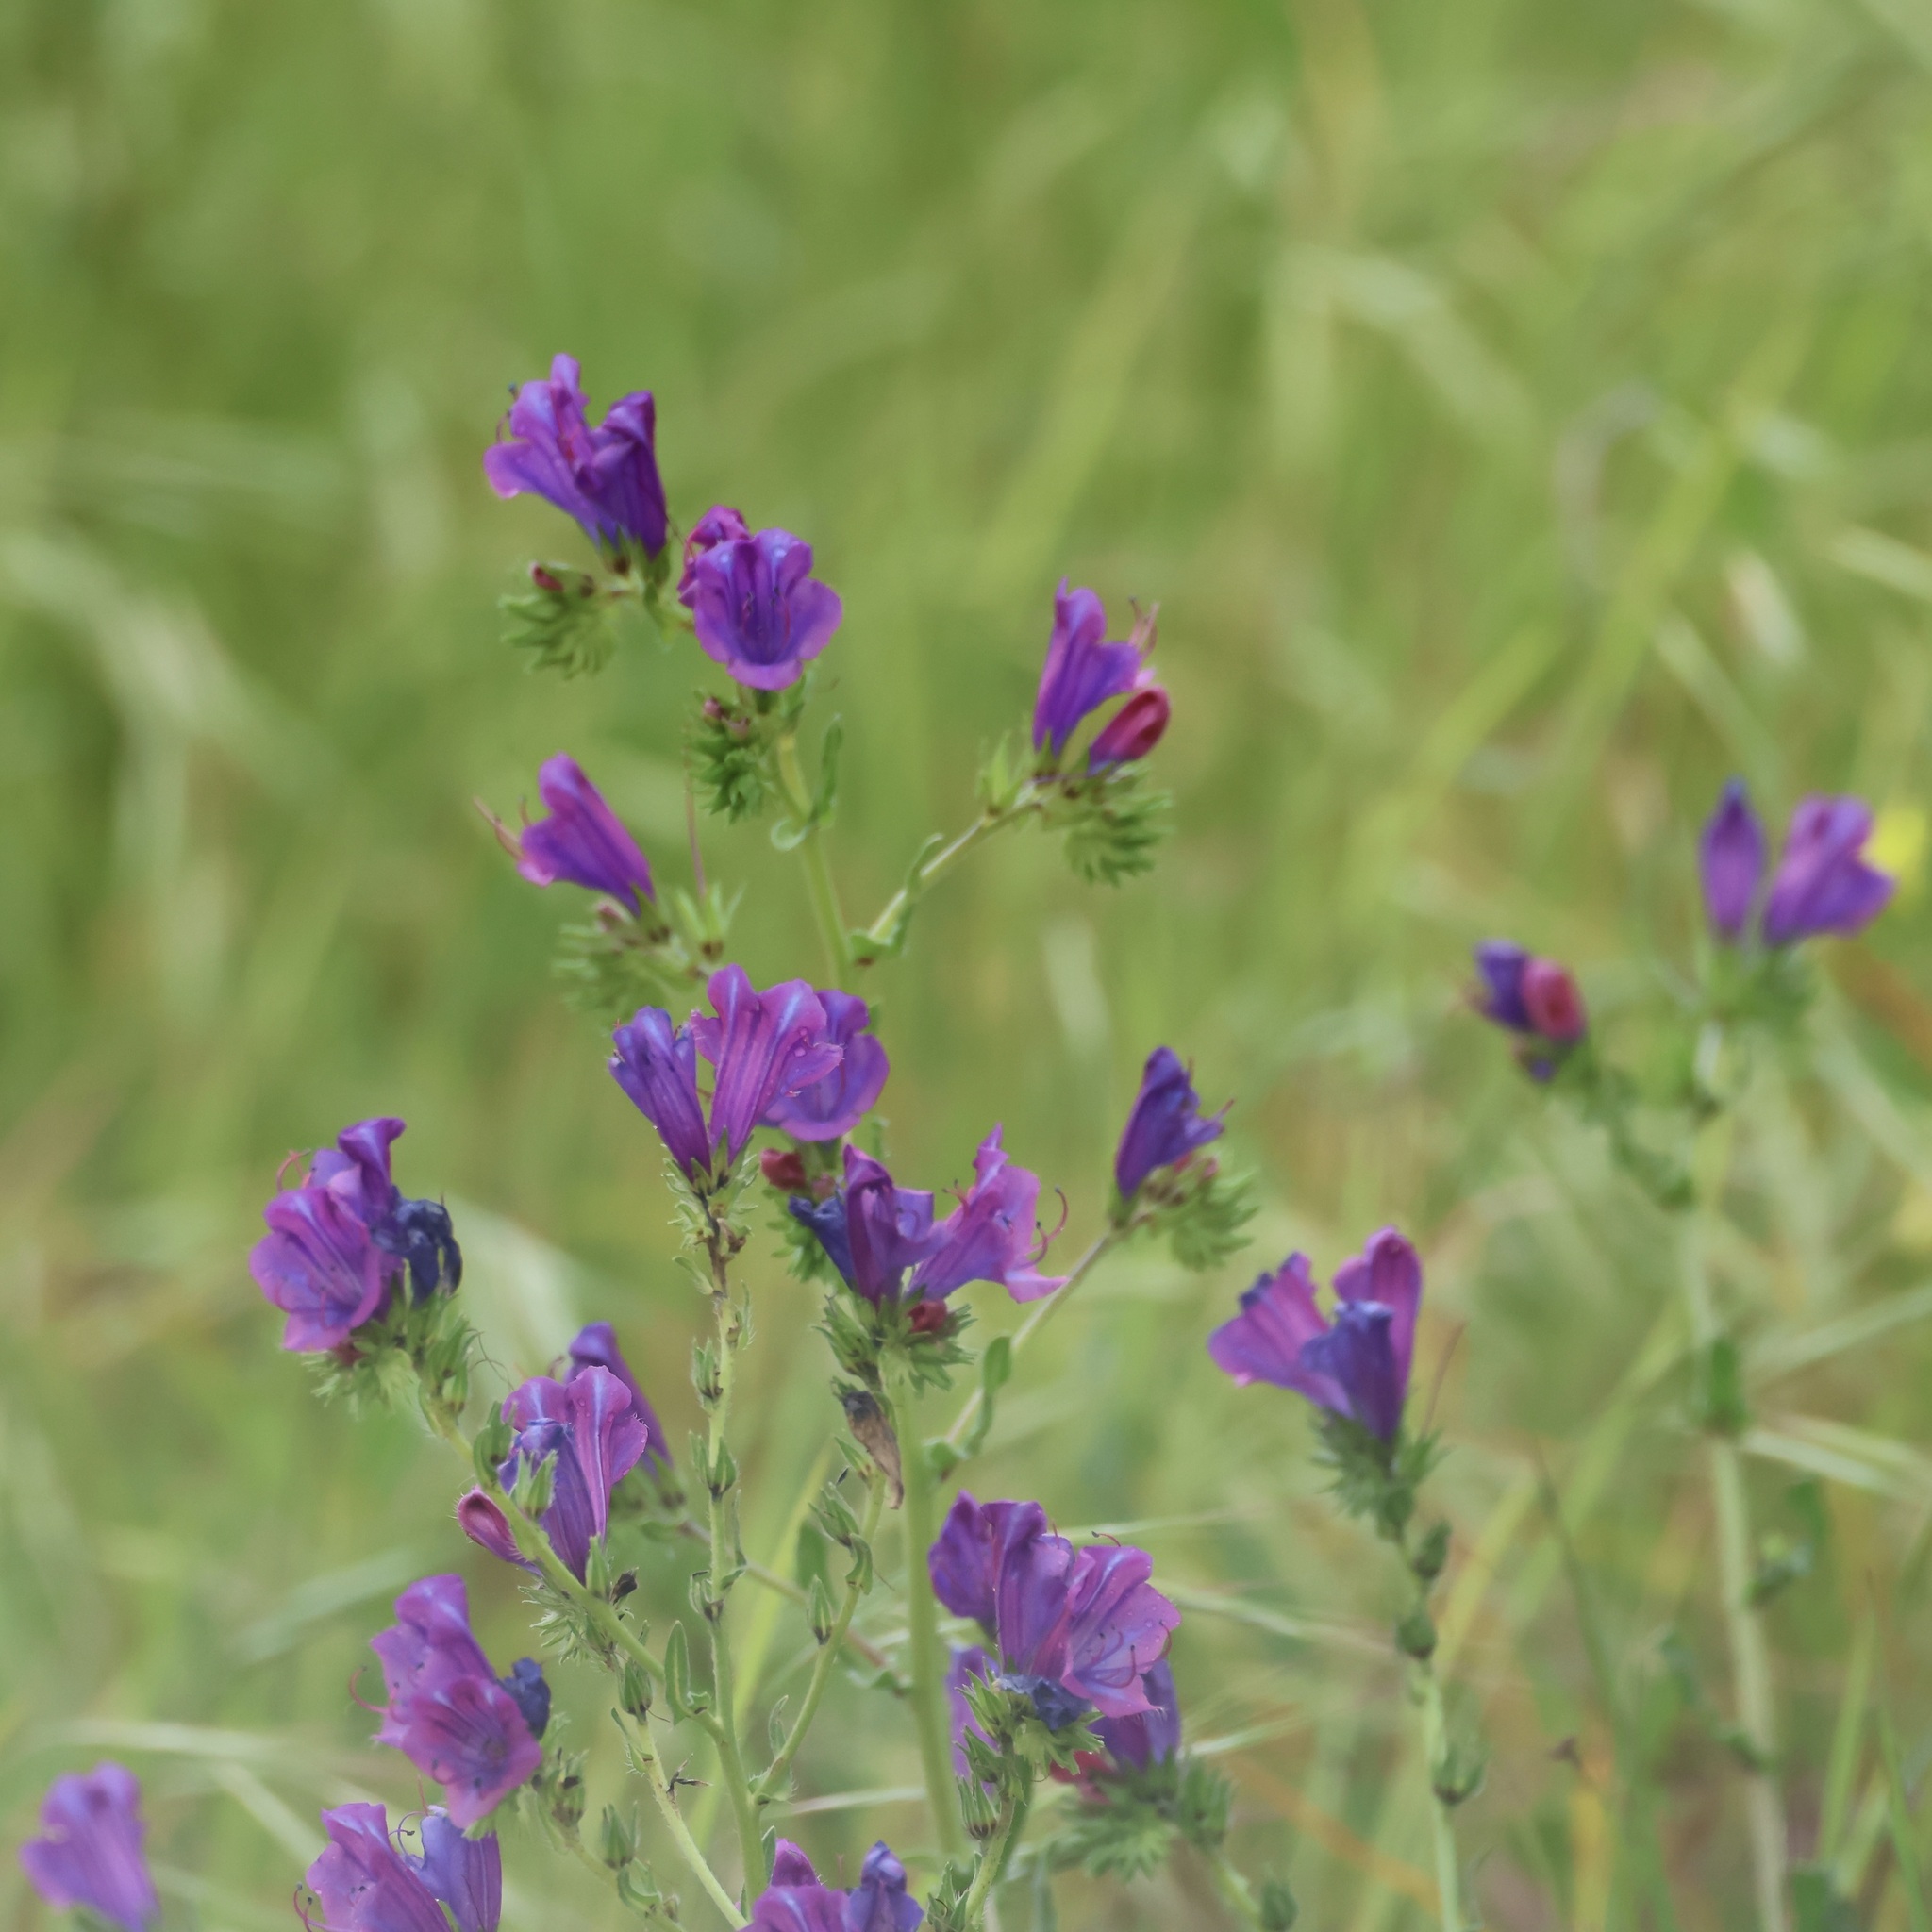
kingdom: Plantae
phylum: Tracheophyta
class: Magnoliopsida
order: Boraginales
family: Boraginaceae
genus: Echium
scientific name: Echium plantagineum
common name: Purple viper's-bugloss
